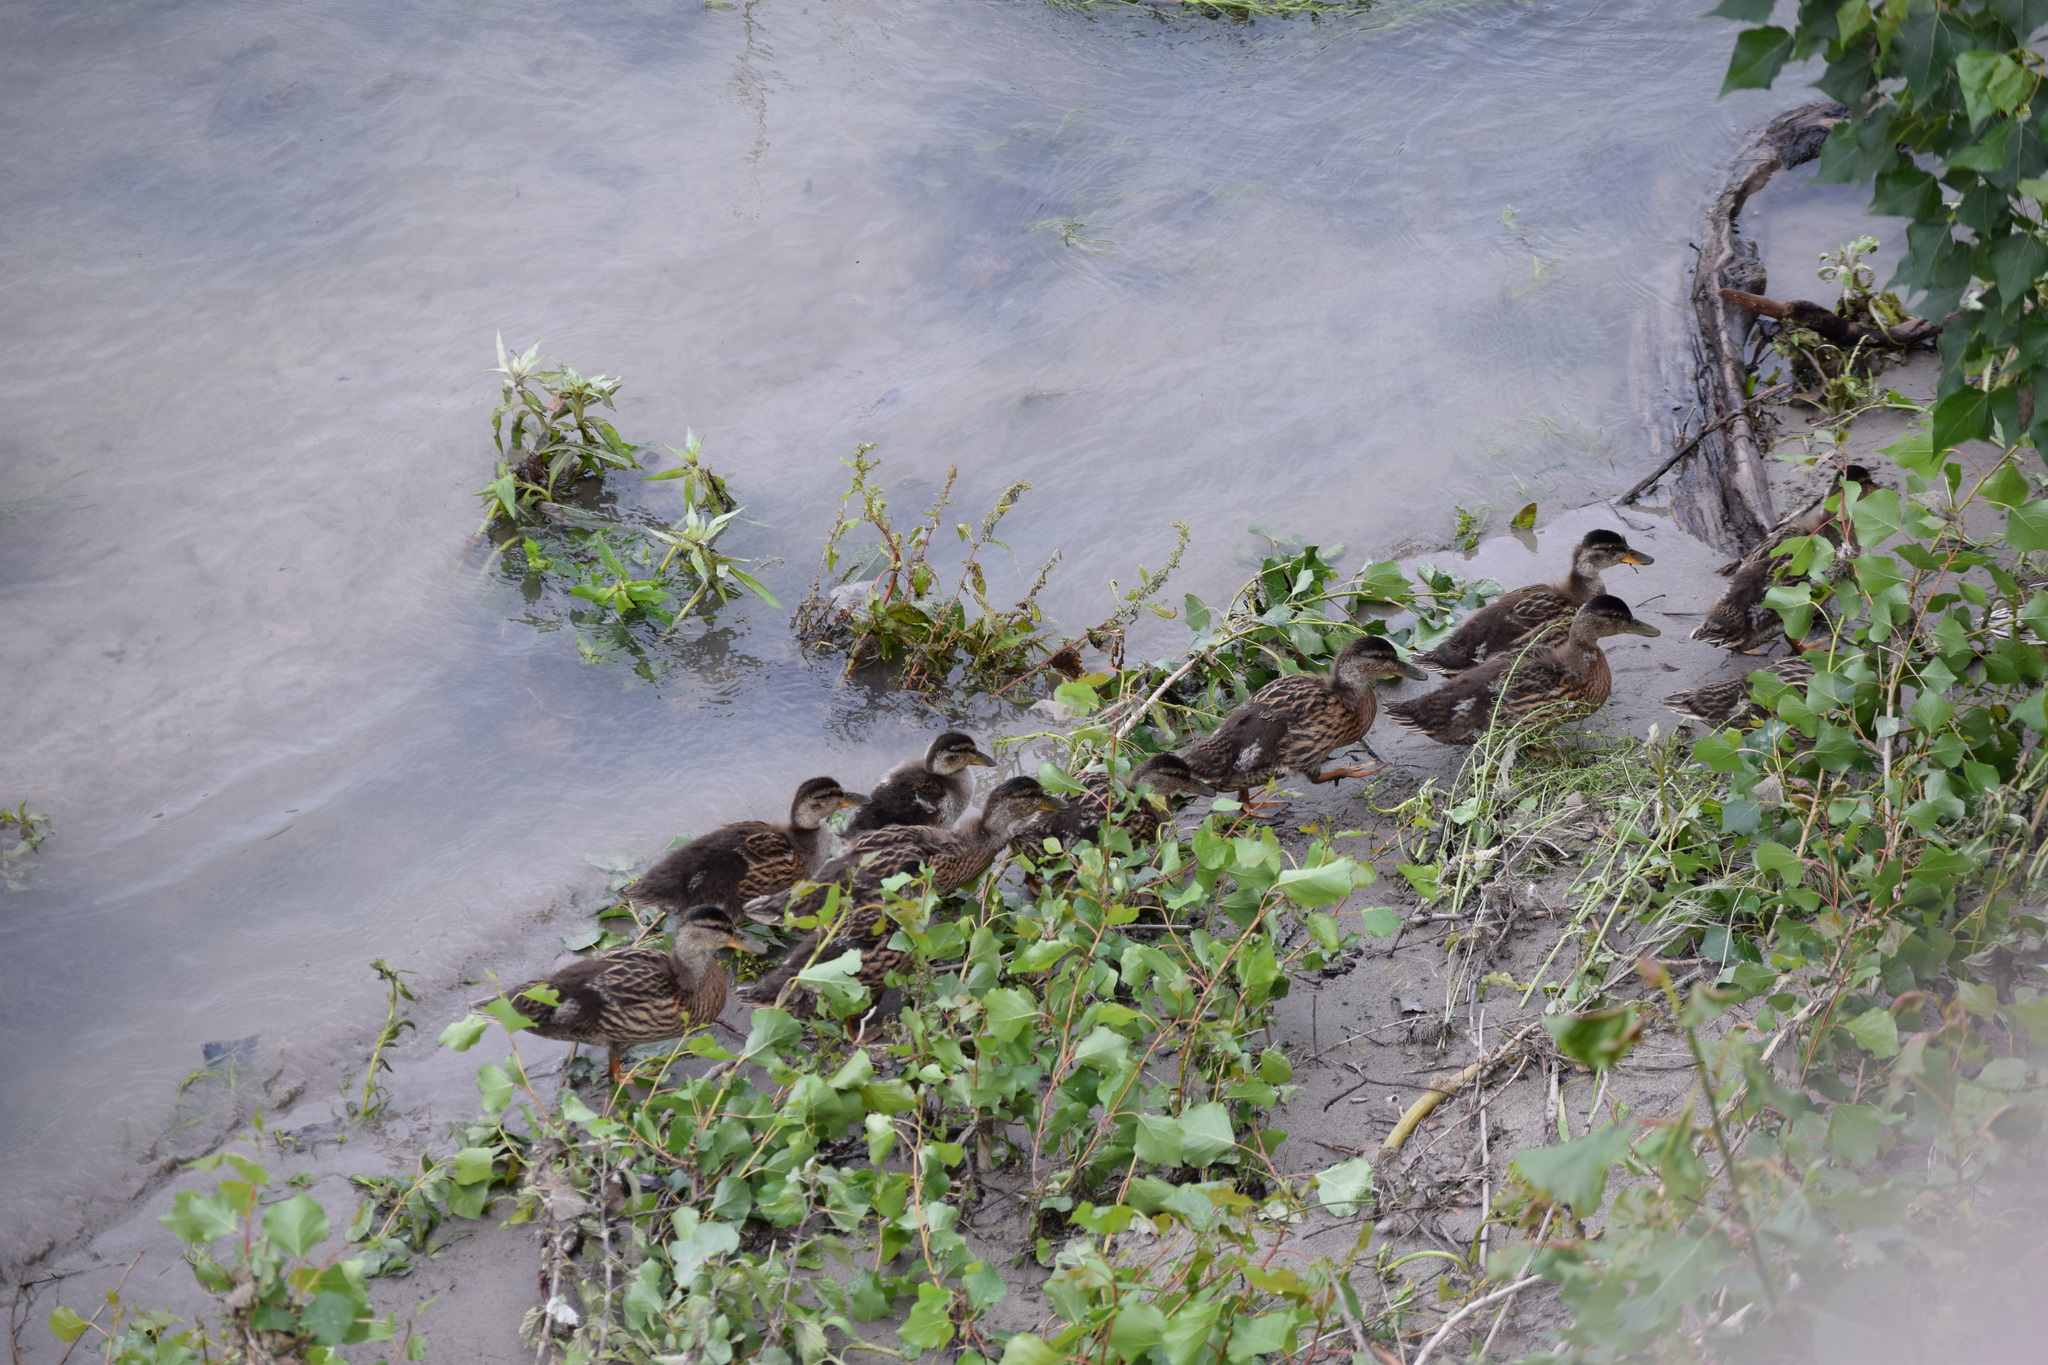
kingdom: Animalia
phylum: Chordata
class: Aves
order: Anseriformes
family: Anatidae
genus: Anas
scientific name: Anas platyrhynchos
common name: Mallard
